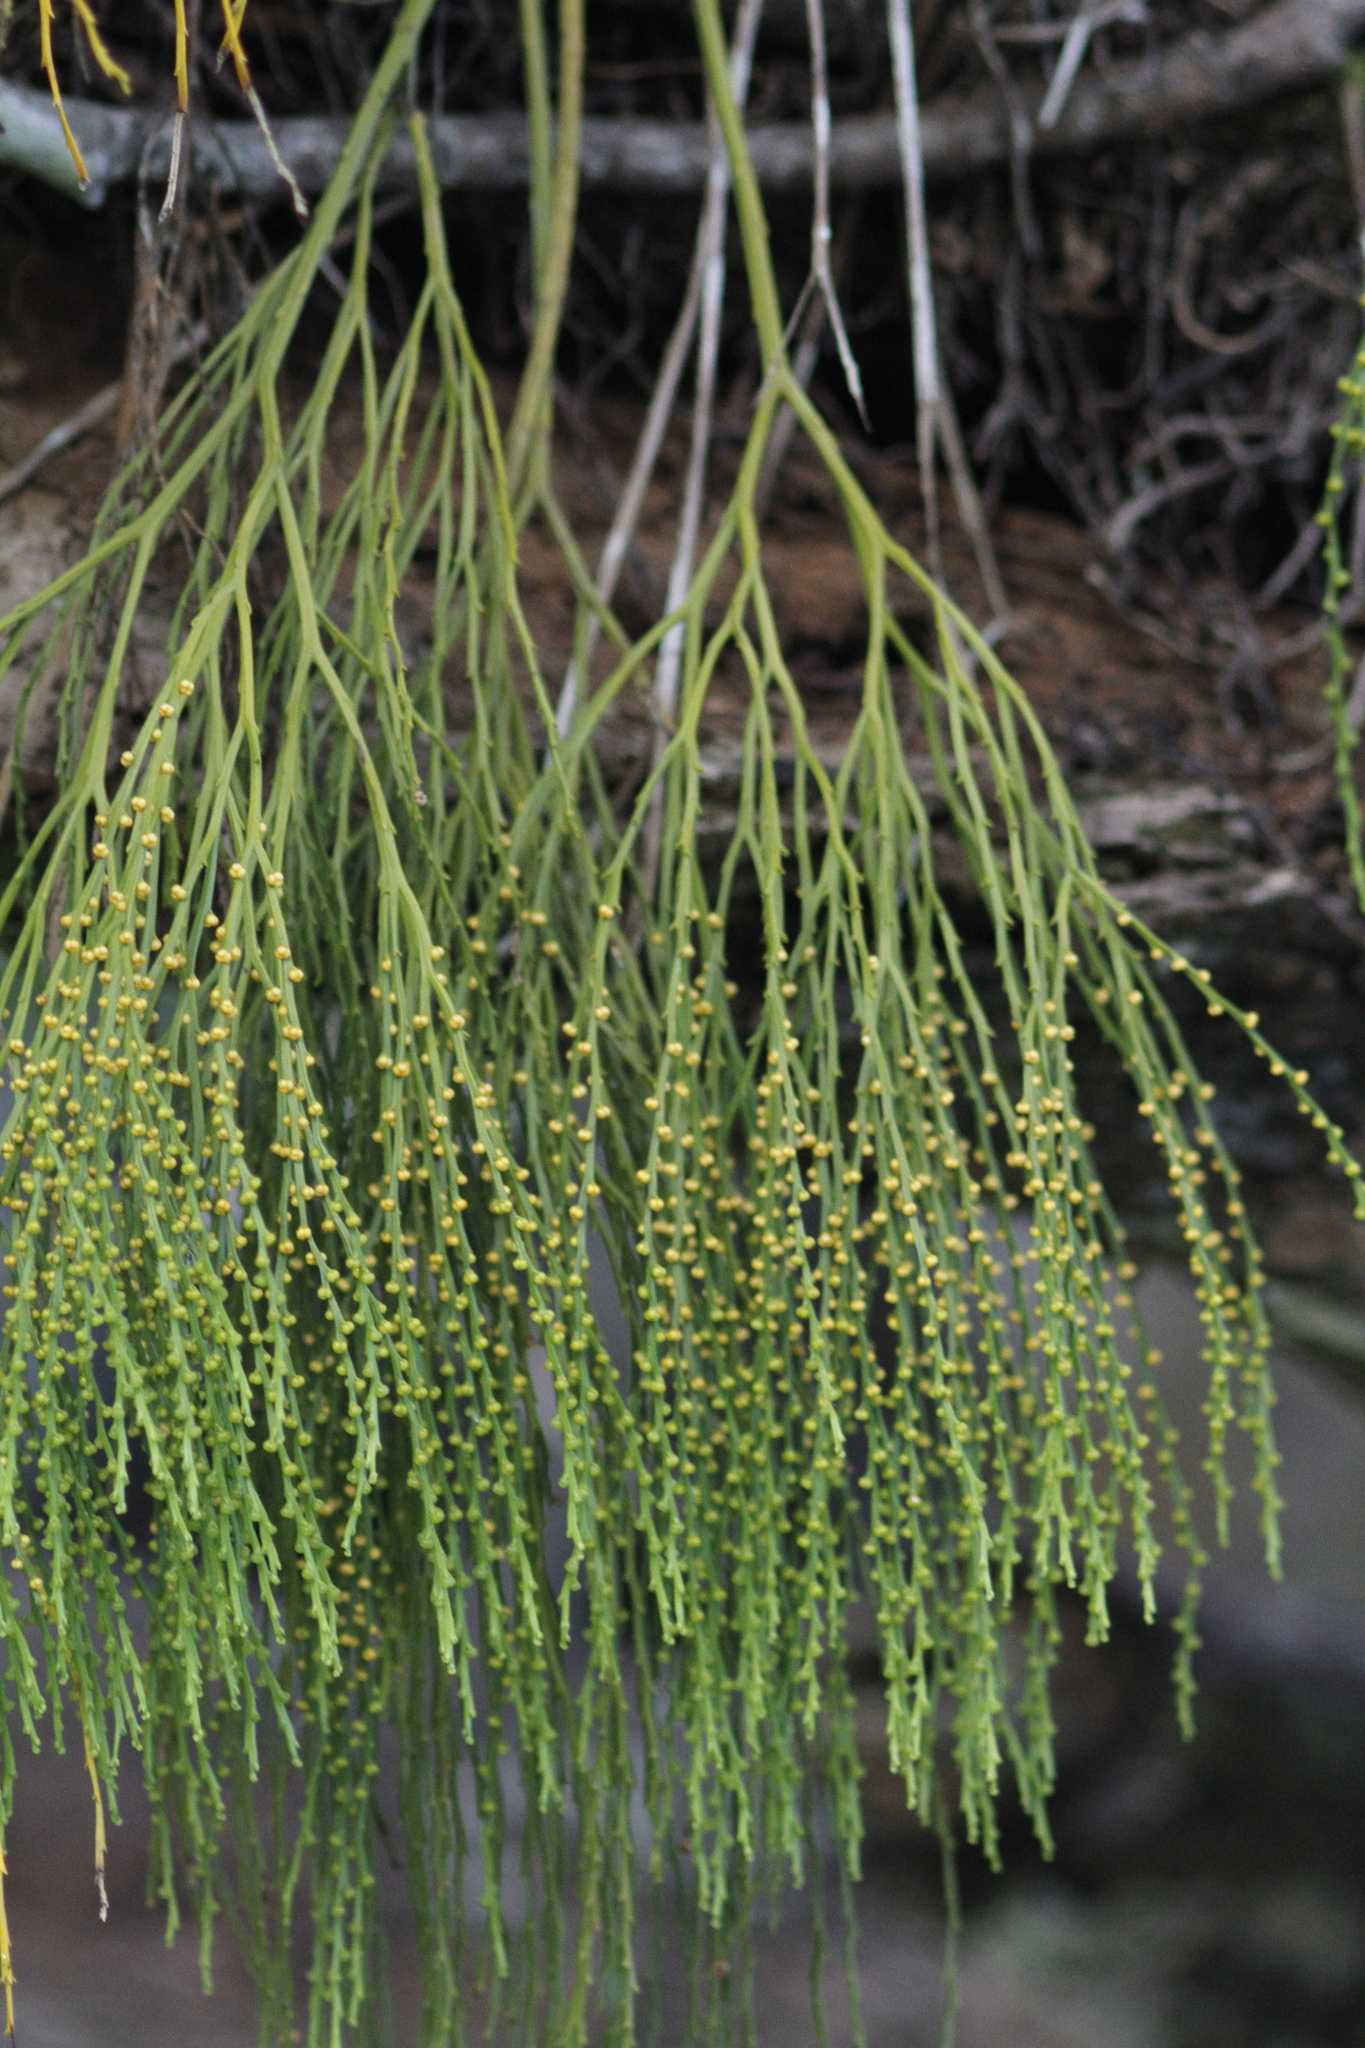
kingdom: Plantae
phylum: Tracheophyta
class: Polypodiopsida
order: Psilotales
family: Psilotaceae
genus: Psilotum
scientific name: Psilotum nudum
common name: Skeleton fork fern
